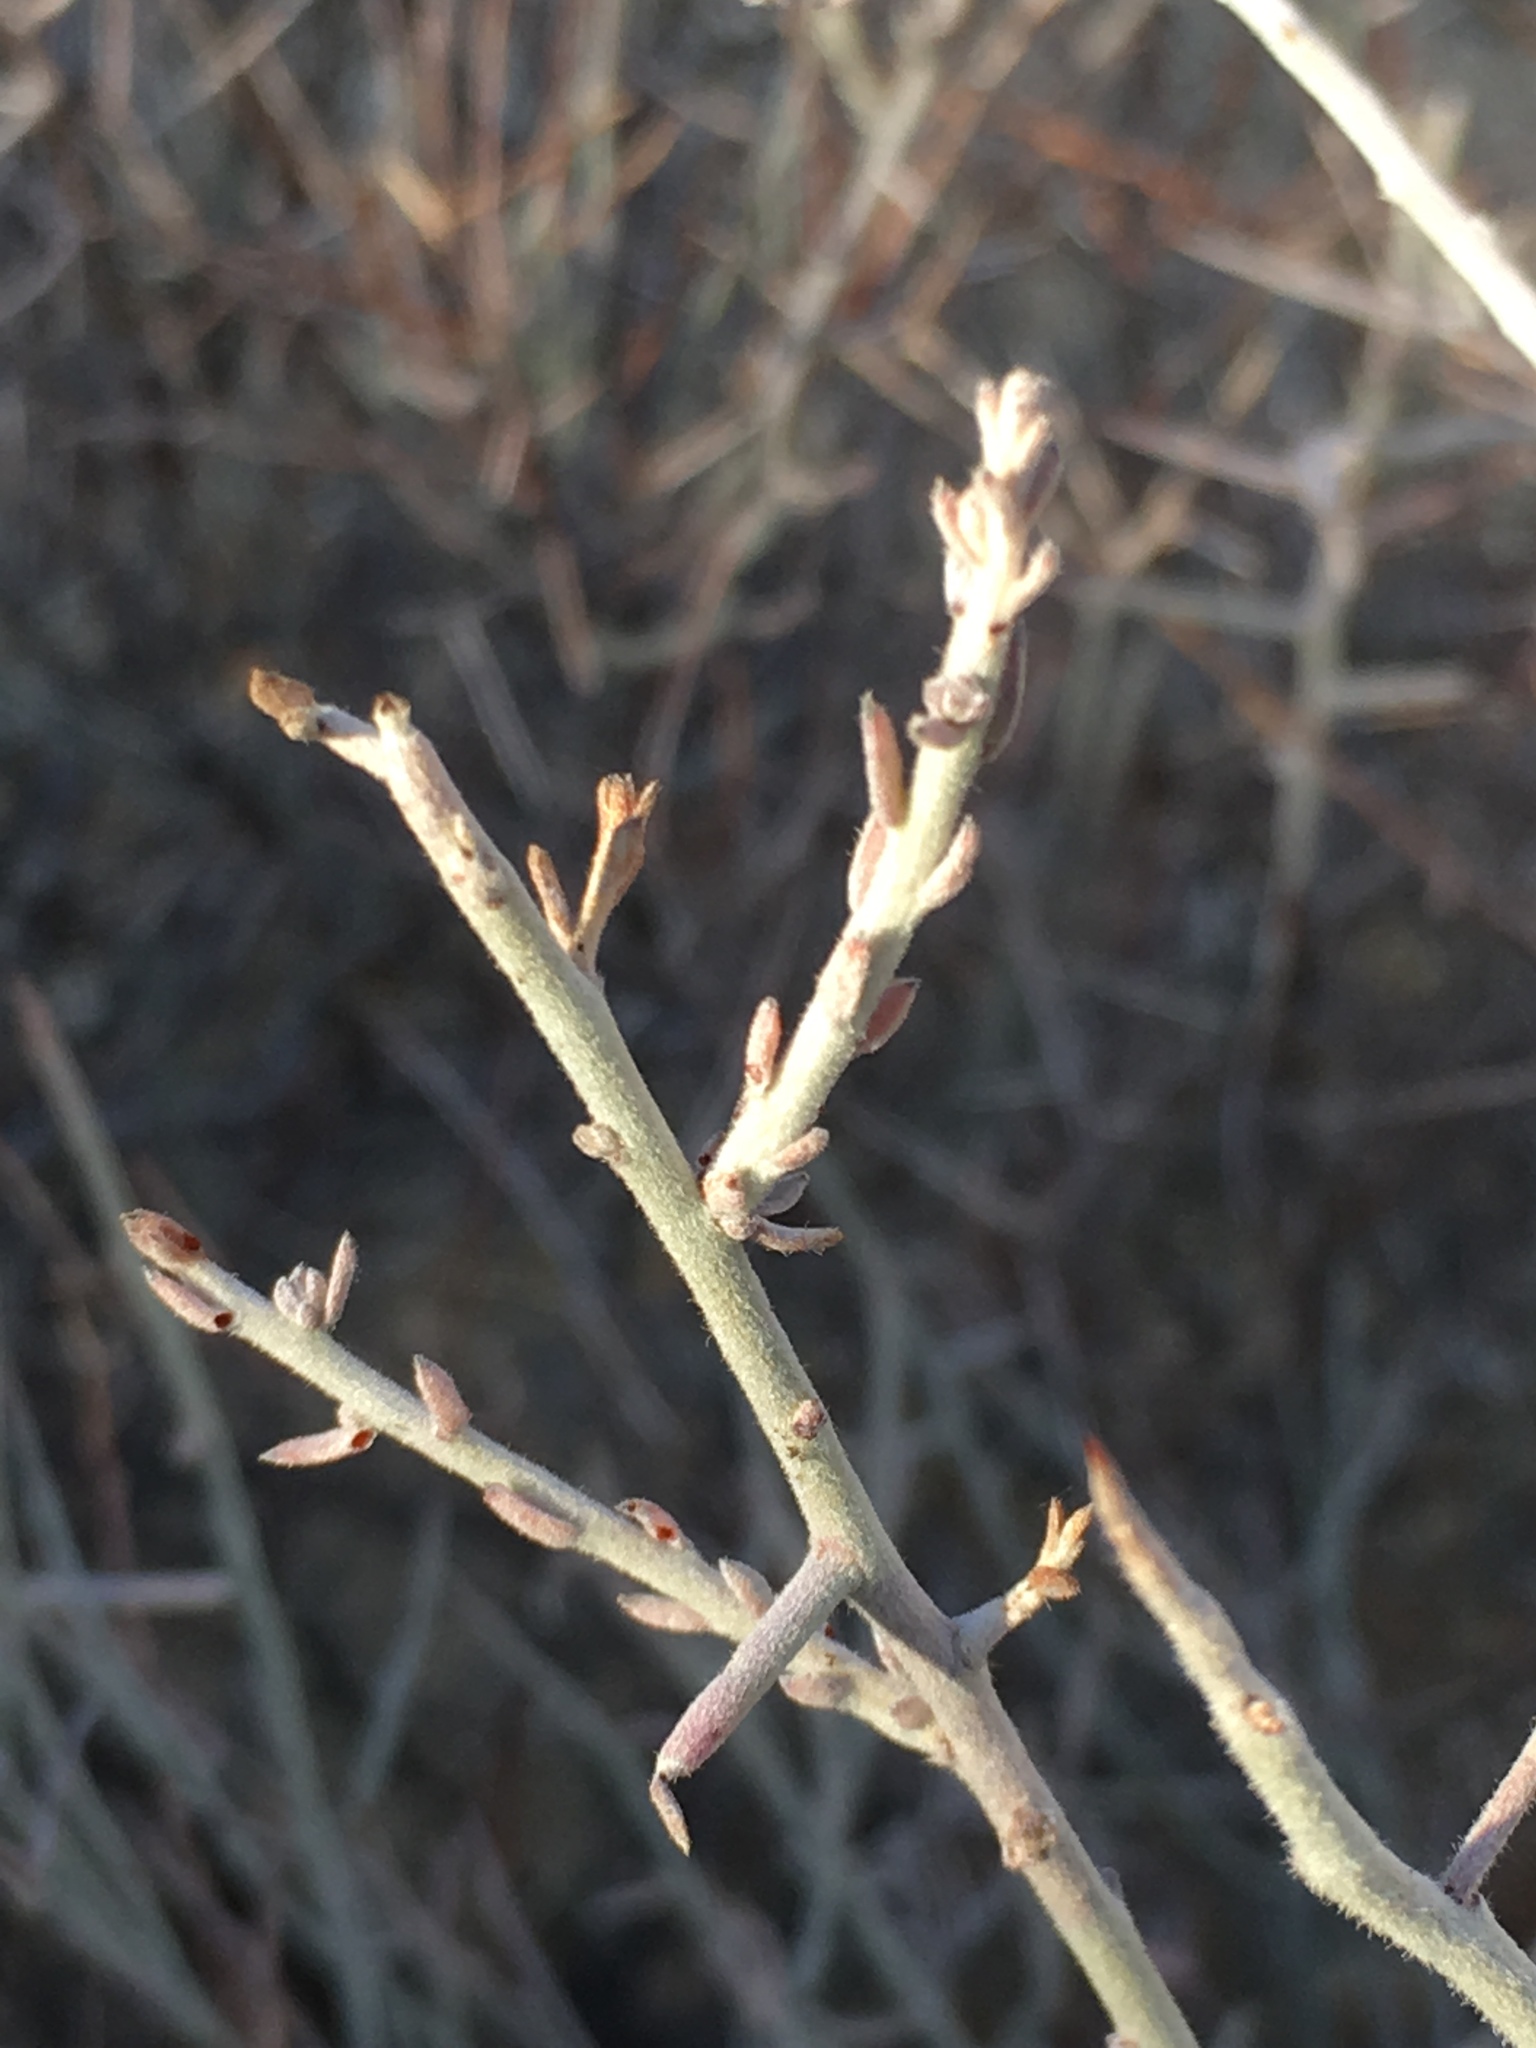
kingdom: Plantae
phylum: Tracheophyta
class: Magnoliopsida
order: Zygophyllales
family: Krameriaceae
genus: Krameria
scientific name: Krameria bicolor
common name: White ratany
